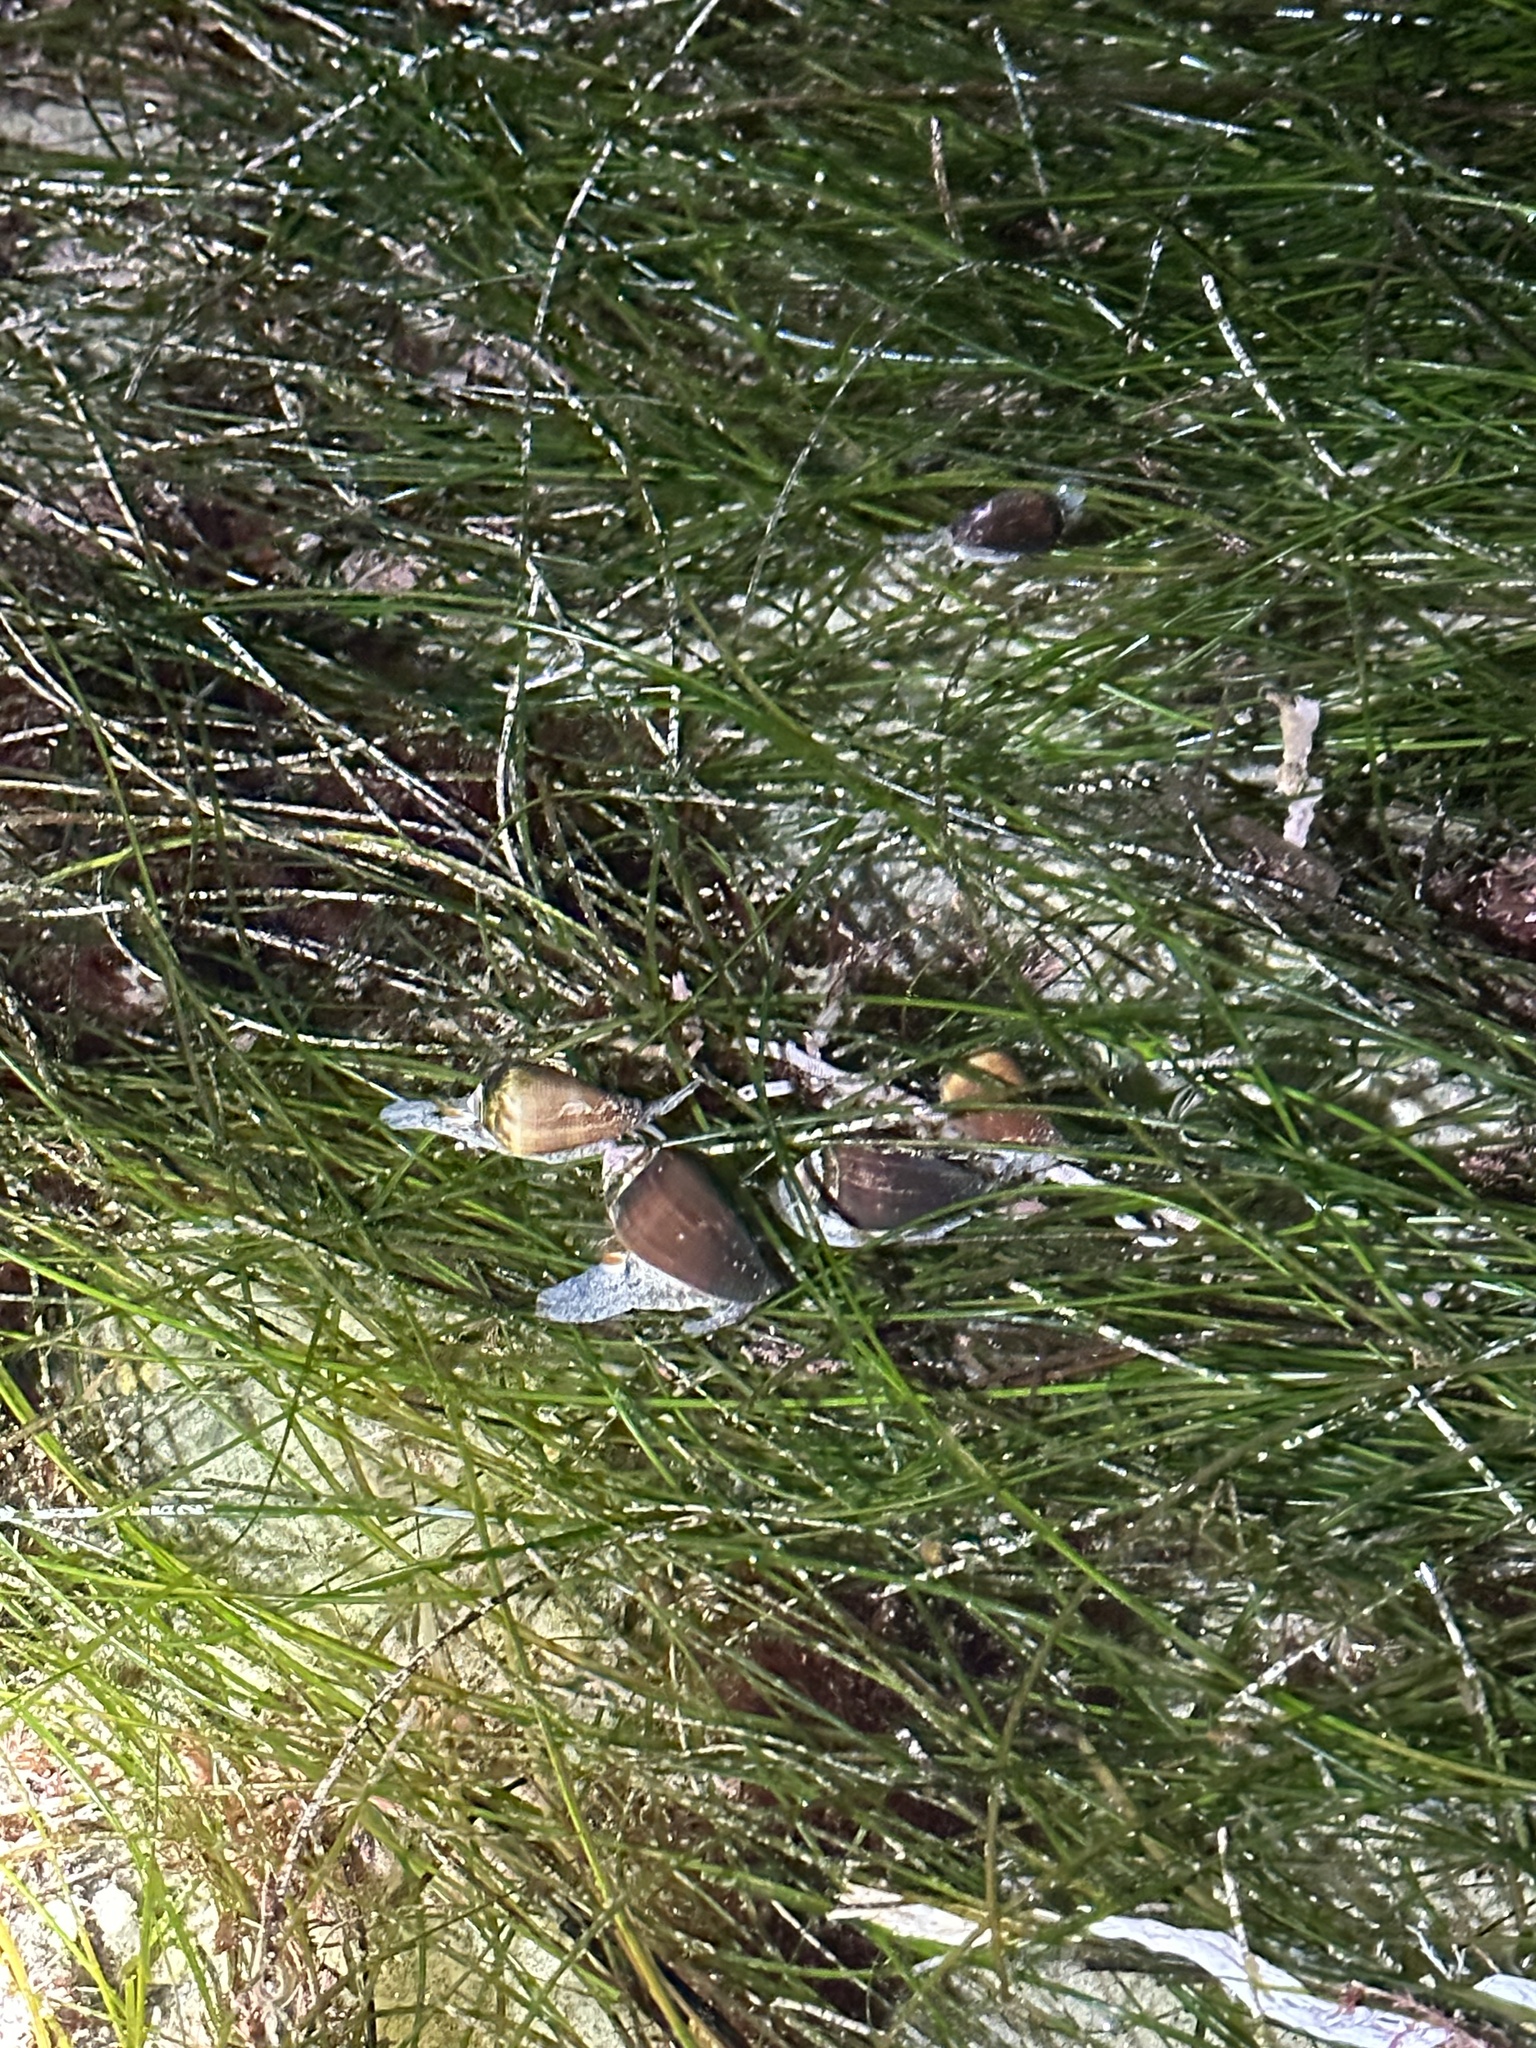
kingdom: Animalia
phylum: Mollusca
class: Gastropoda
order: Neogastropoda
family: Conidae
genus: Californiconus
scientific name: Californiconus californicus
